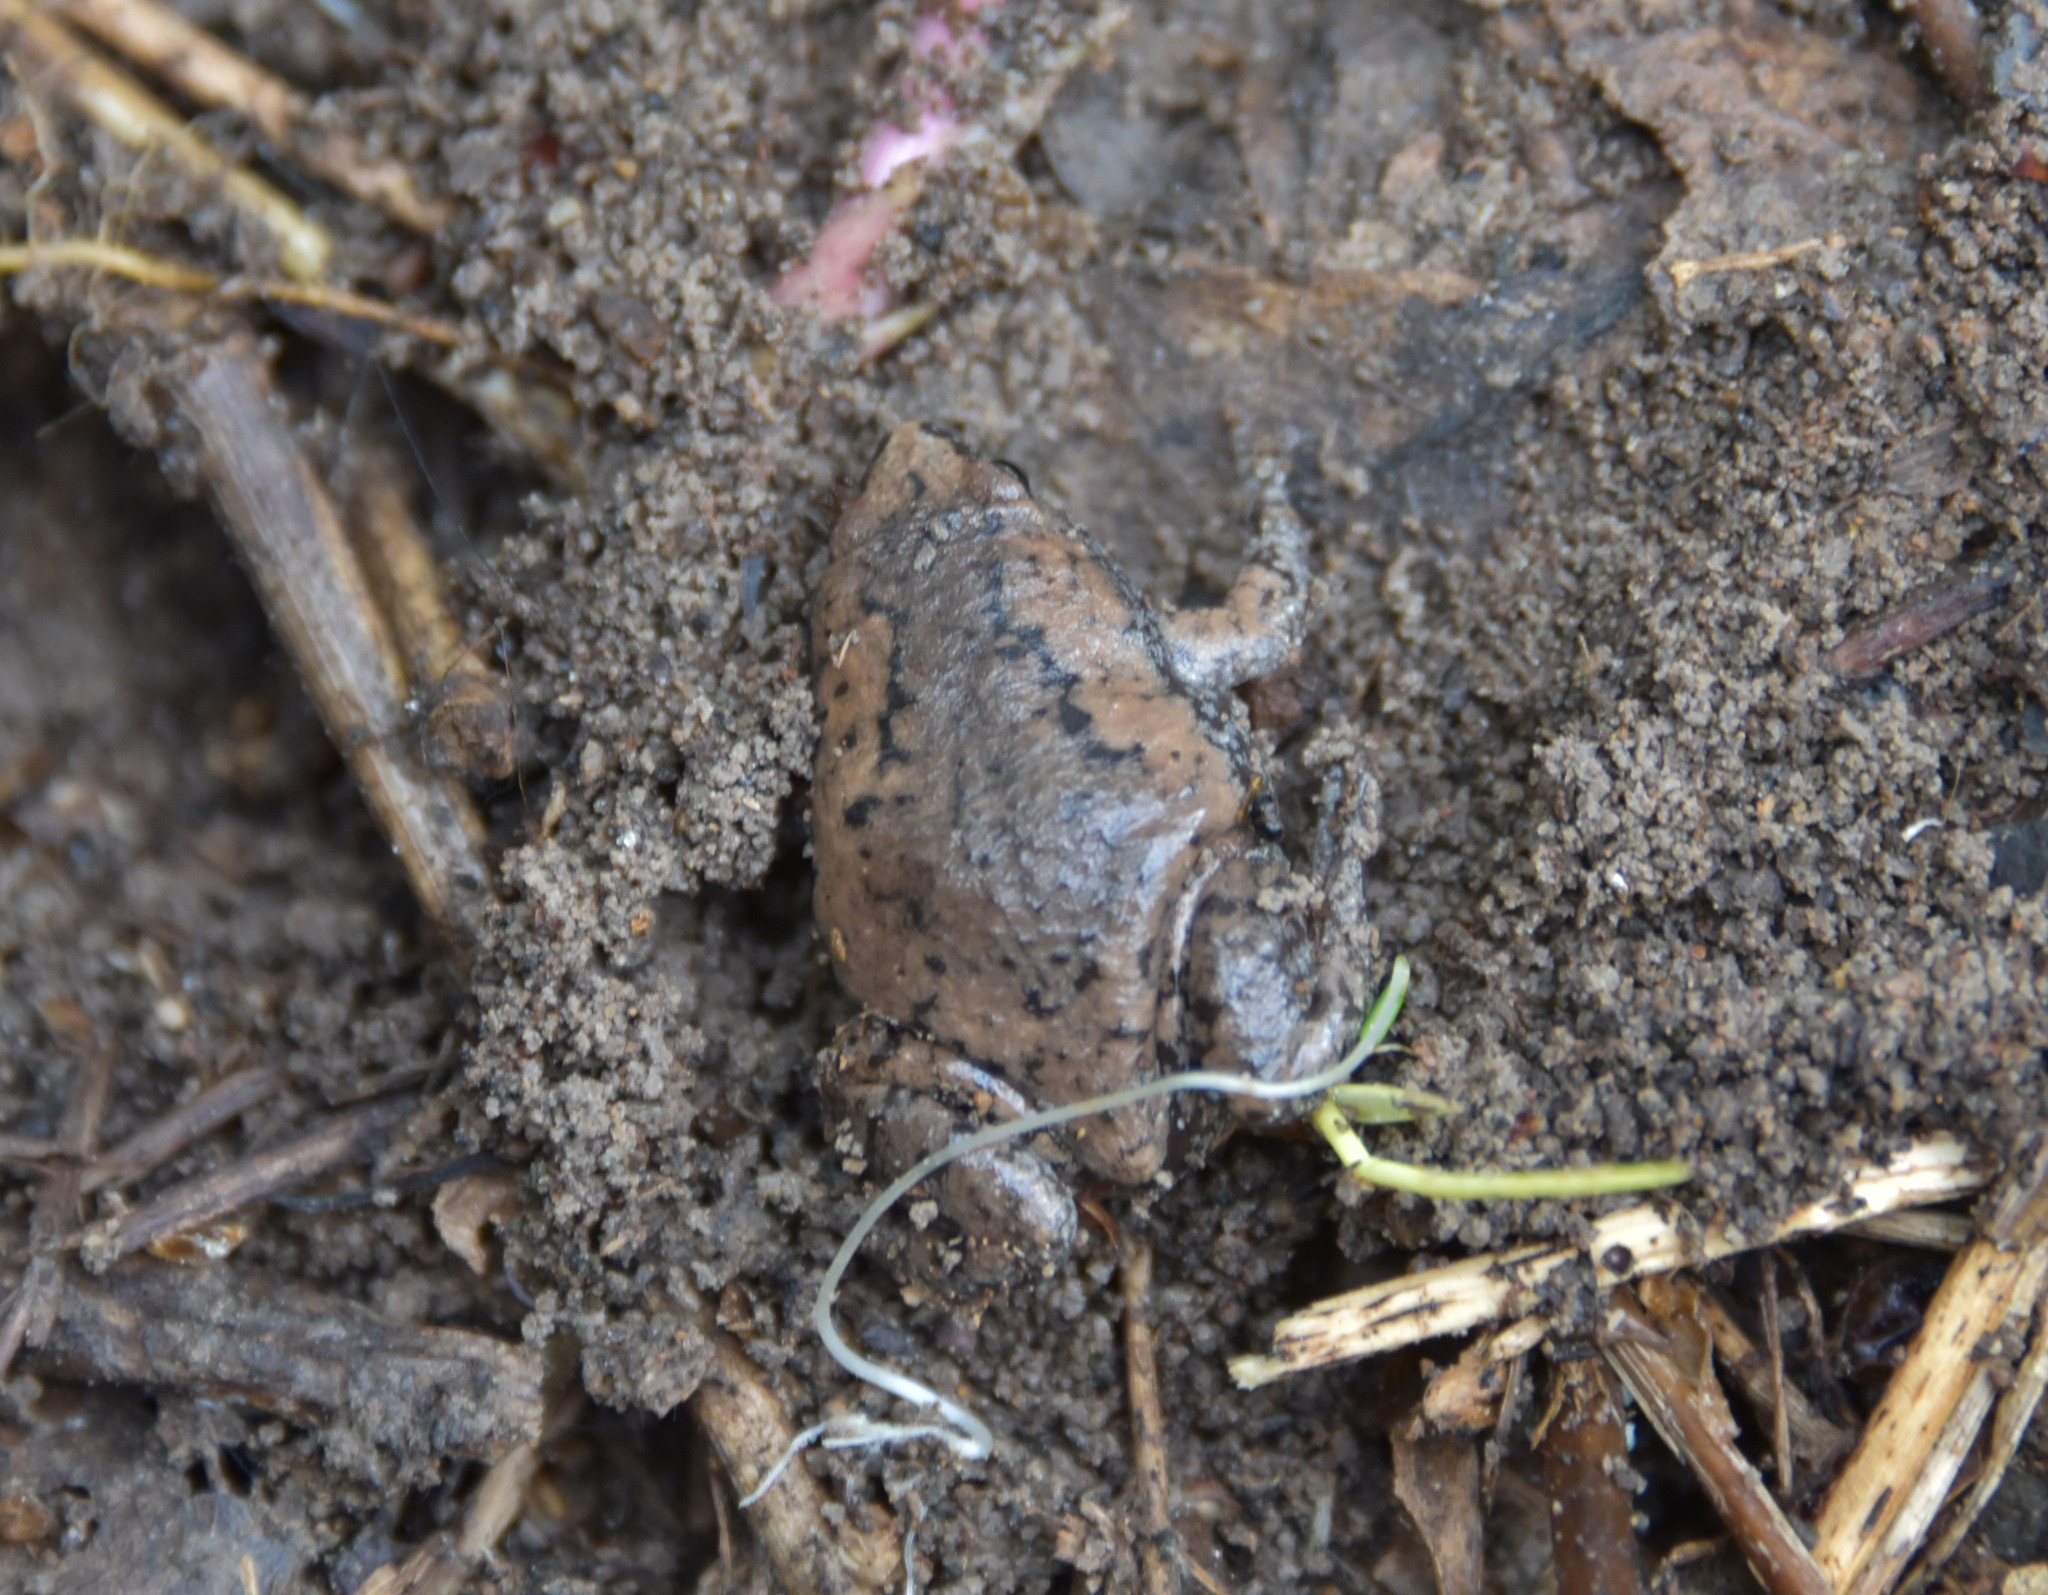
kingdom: Animalia
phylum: Chordata
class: Amphibia
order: Anura
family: Microhylidae
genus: Gastrophryne
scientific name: Gastrophryne carolinensis
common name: Eastern narrowmouth toad
